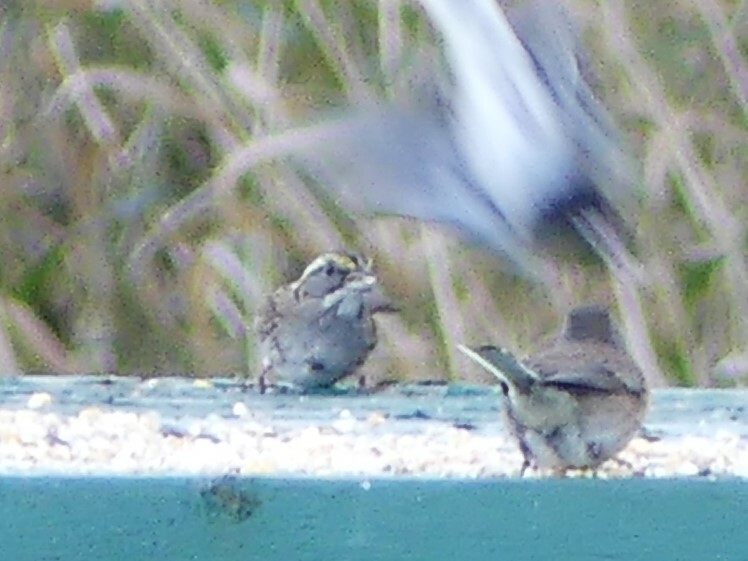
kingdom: Animalia
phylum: Chordata
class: Aves
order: Passeriformes
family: Passerellidae
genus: Zonotrichia
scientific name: Zonotrichia albicollis
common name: White-throated sparrow
